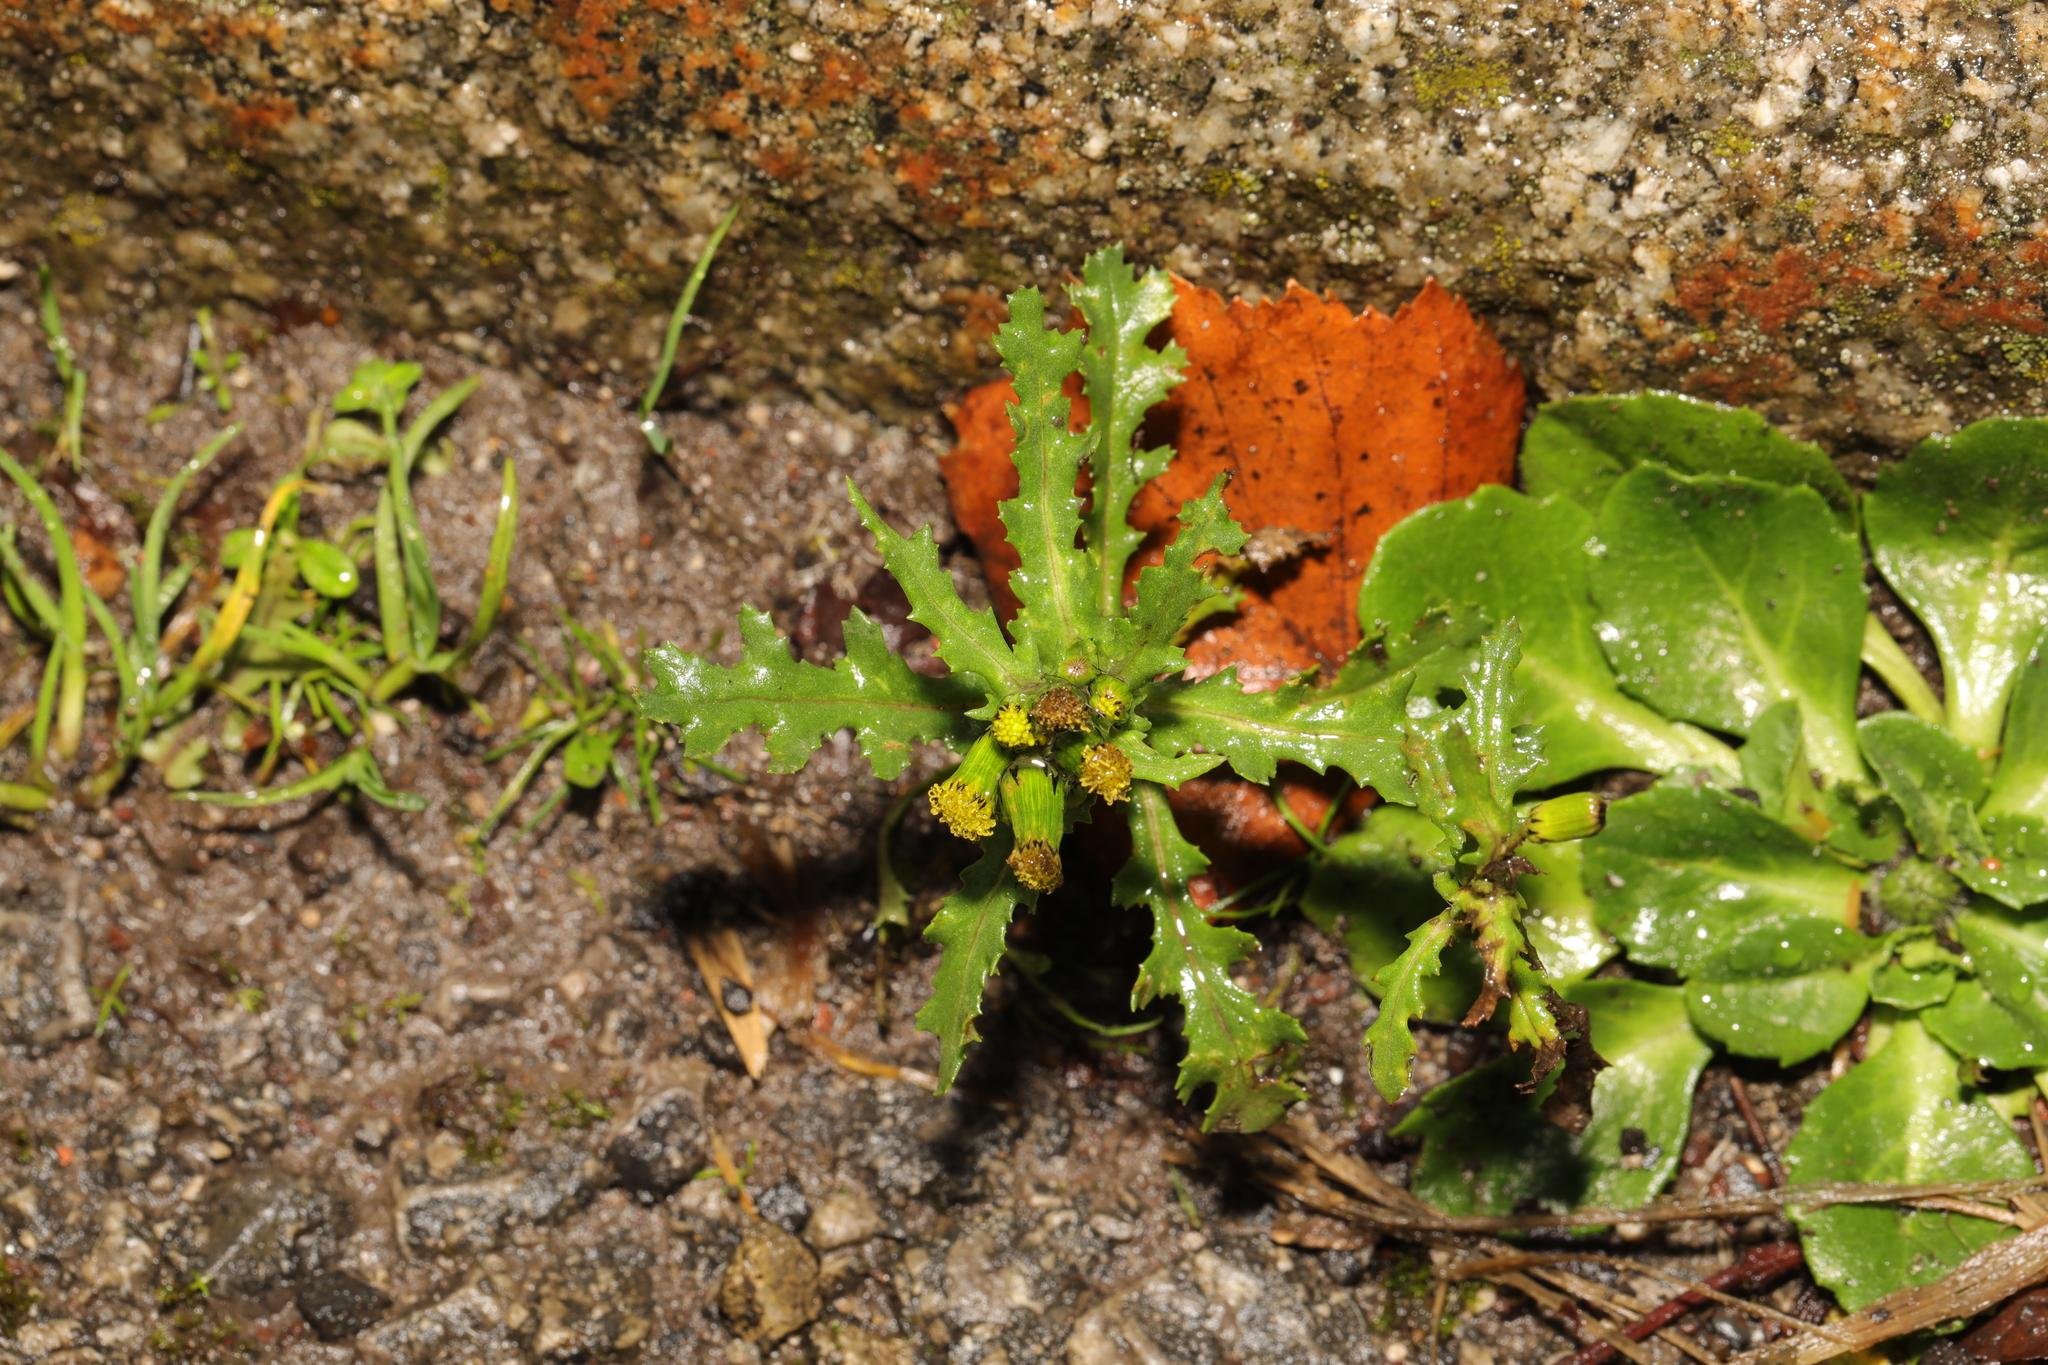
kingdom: Plantae
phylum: Tracheophyta
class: Magnoliopsida
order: Asterales
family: Asteraceae
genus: Senecio
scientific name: Senecio vulgaris
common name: Old-man-in-the-spring
